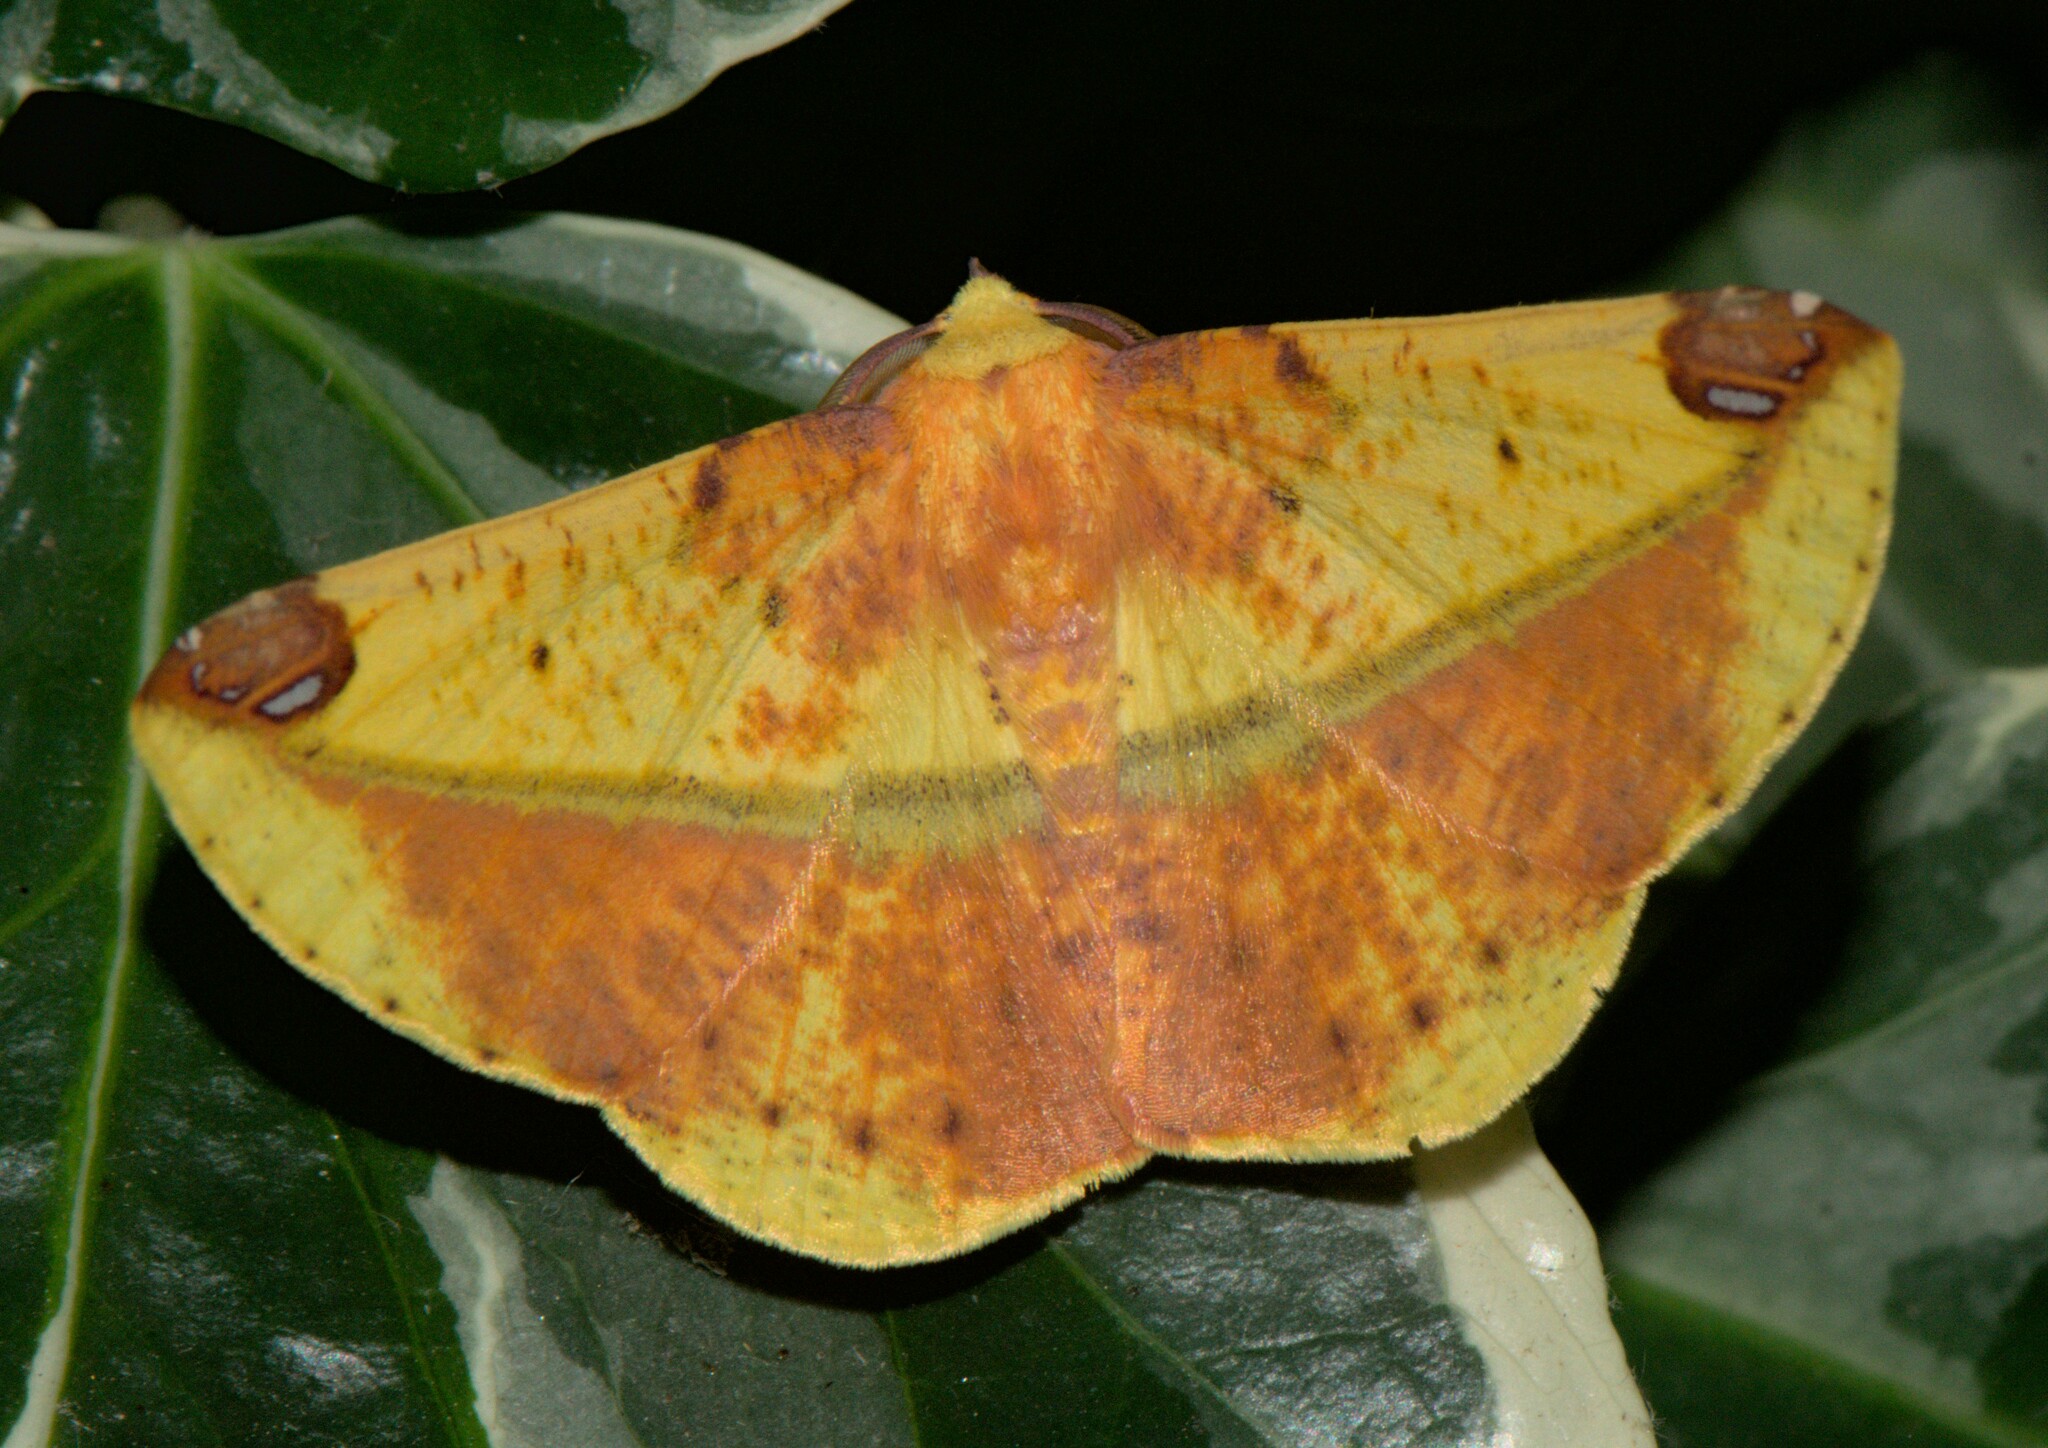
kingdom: Animalia
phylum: Arthropoda
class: Insecta
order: Lepidoptera
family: Geometridae
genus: Mimomiza
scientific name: Mimomiza cruentaria
